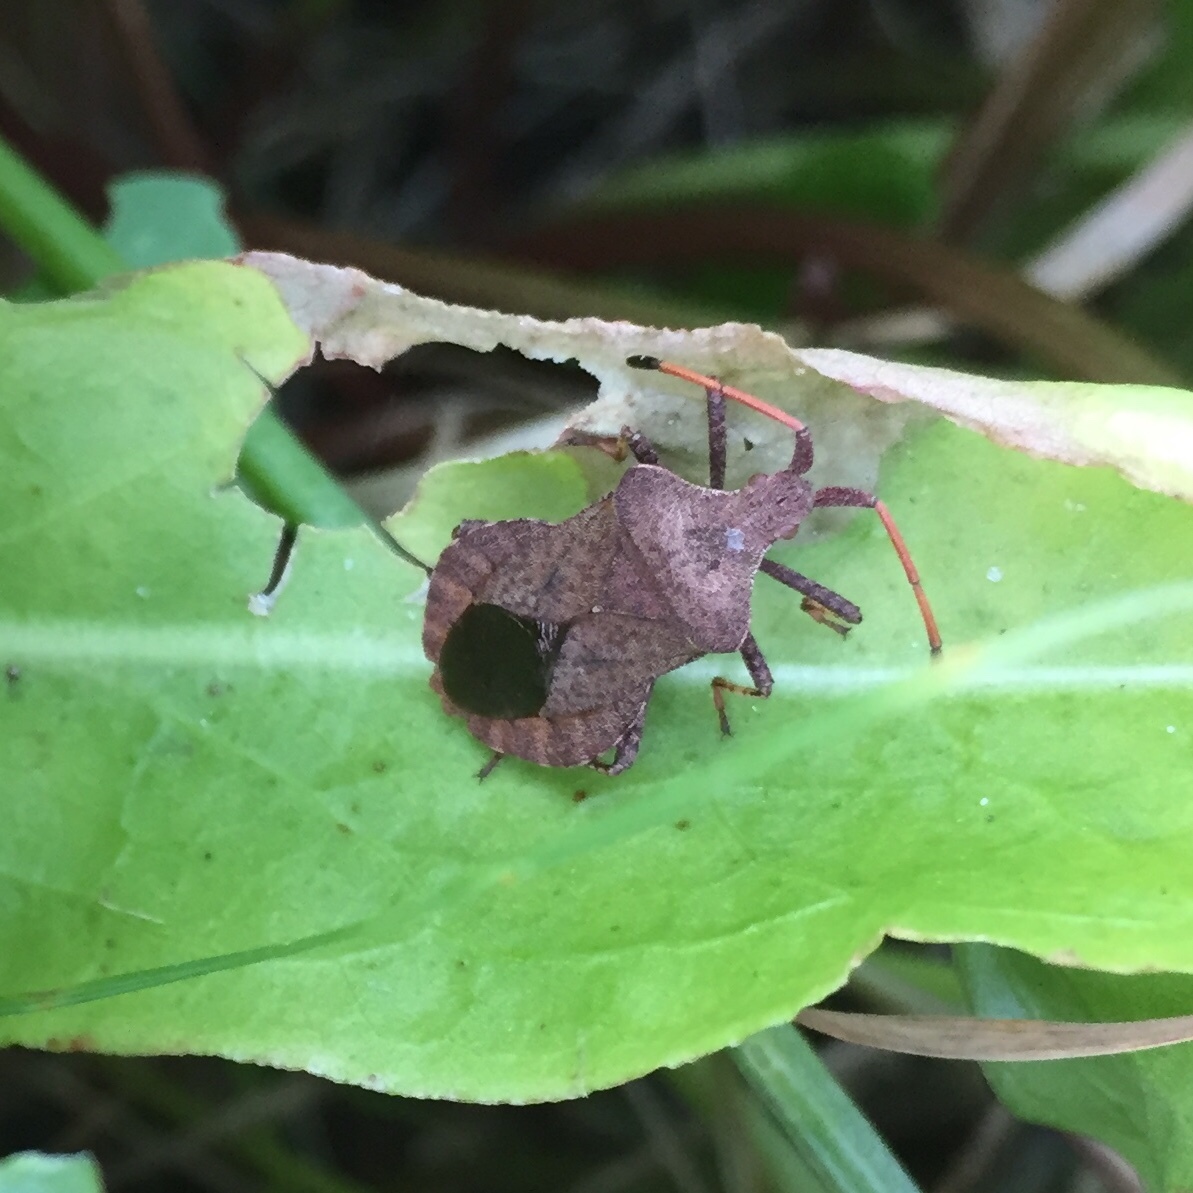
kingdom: Animalia
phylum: Arthropoda
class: Insecta
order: Hemiptera
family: Coreidae
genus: Coreus
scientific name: Coreus marginatus
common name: Dock bug
